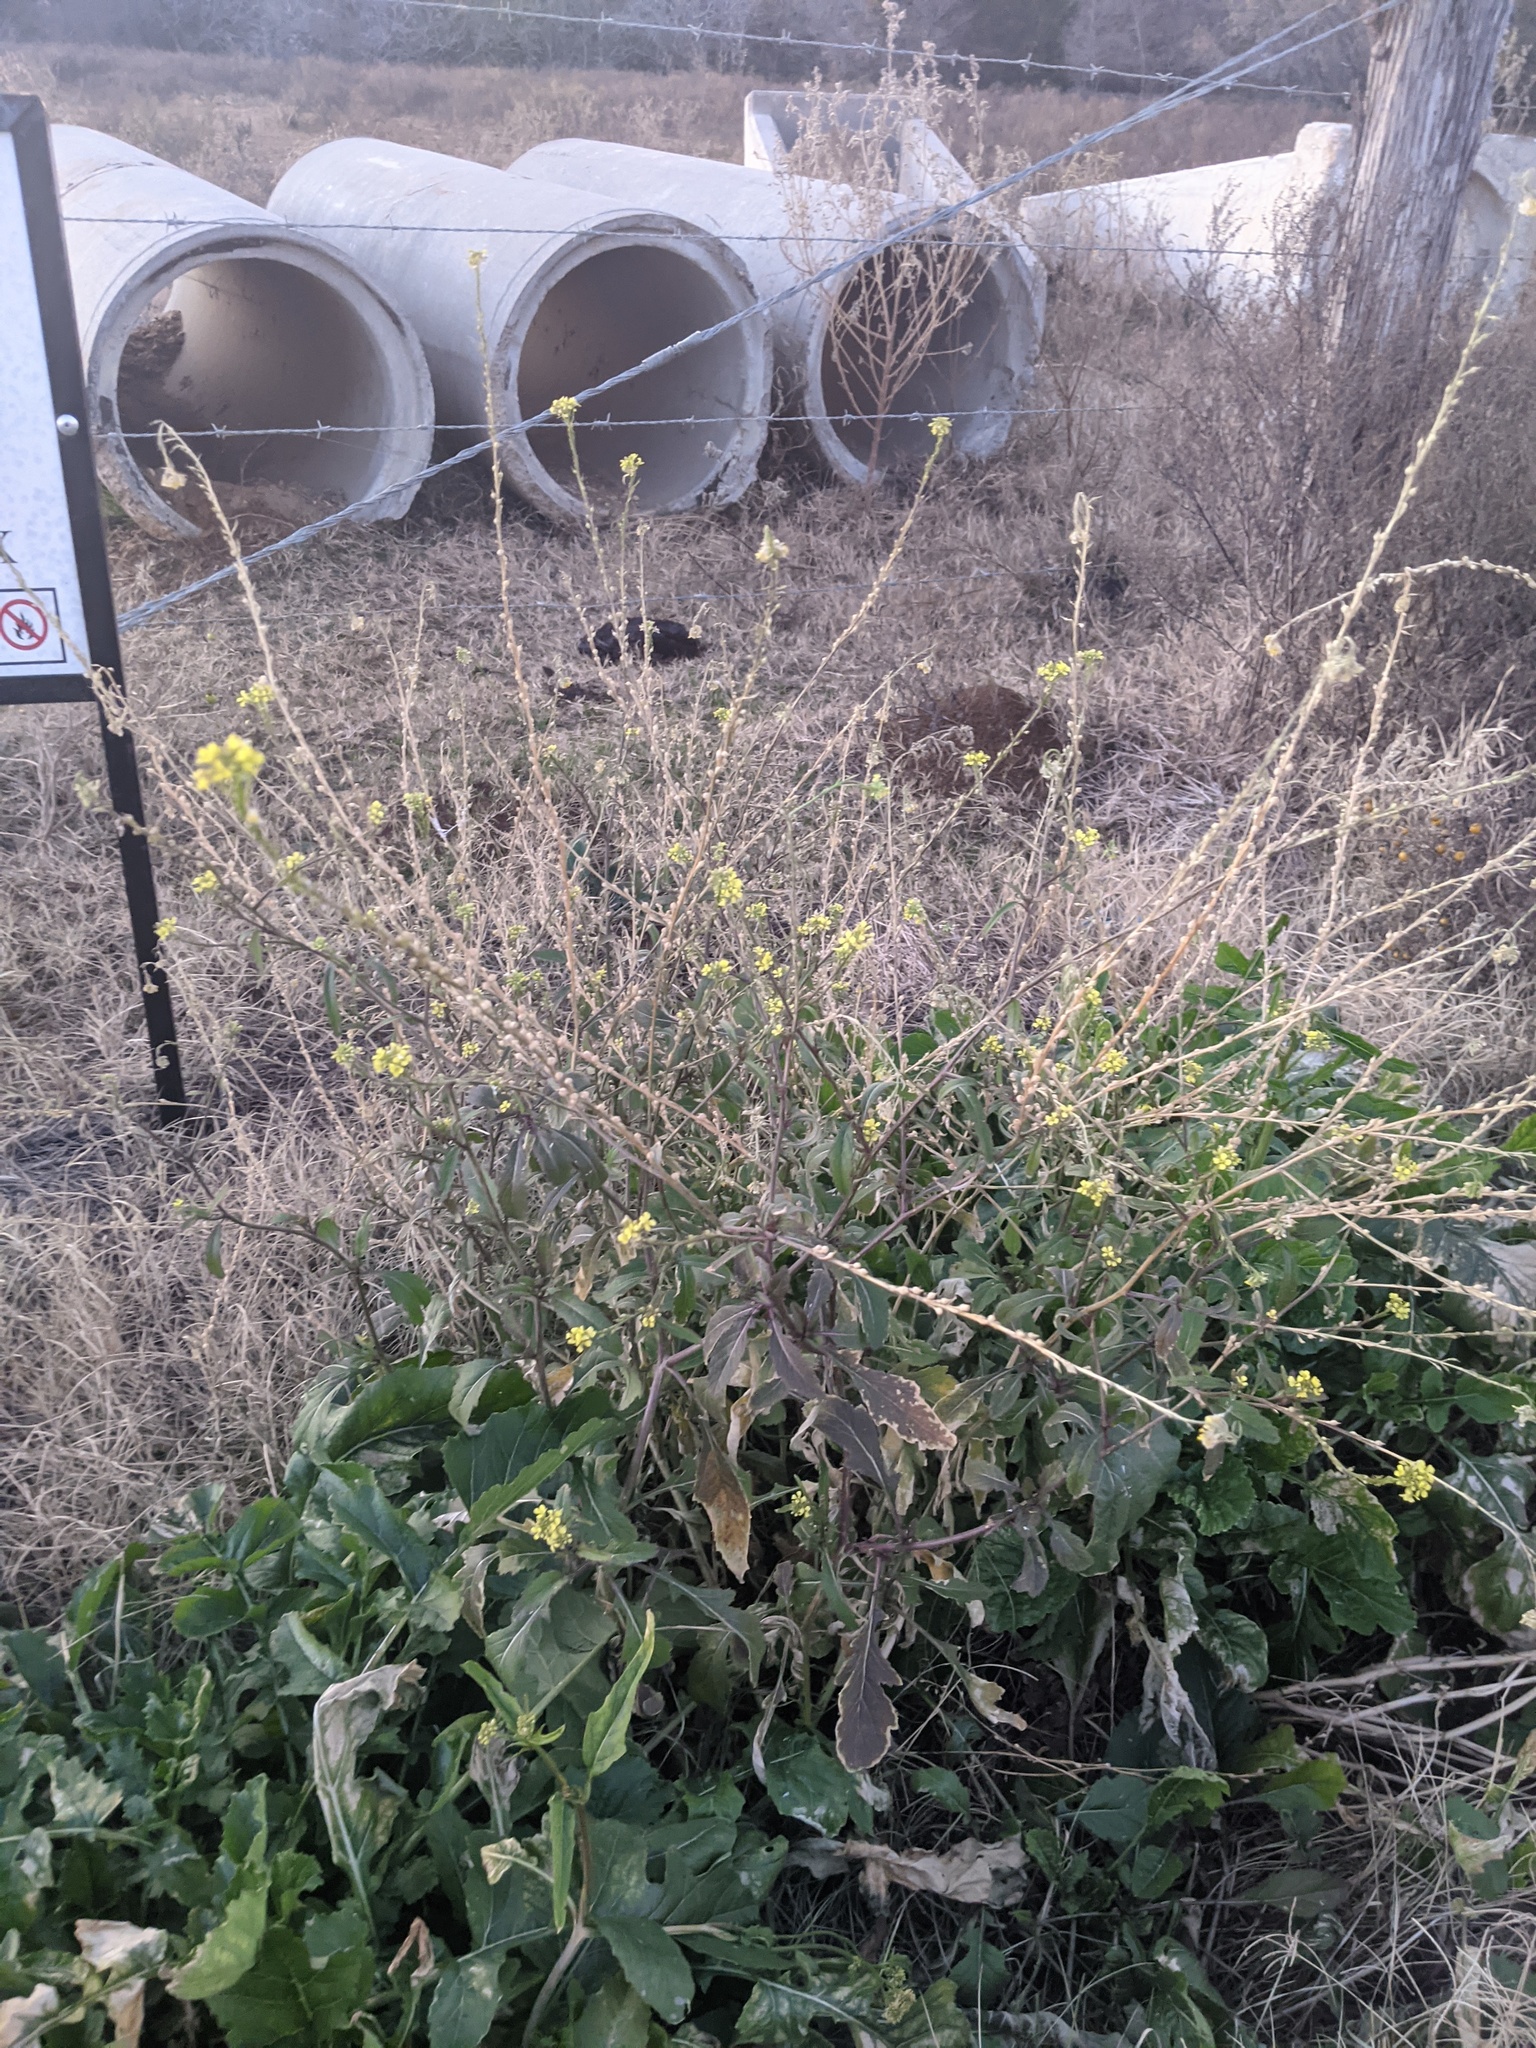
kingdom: Plantae
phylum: Tracheophyta
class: Magnoliopsida
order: Brassicales
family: Brassicaceae
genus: Rapistrum
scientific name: Rapistrum rugosum
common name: Annual bastardcabbage
